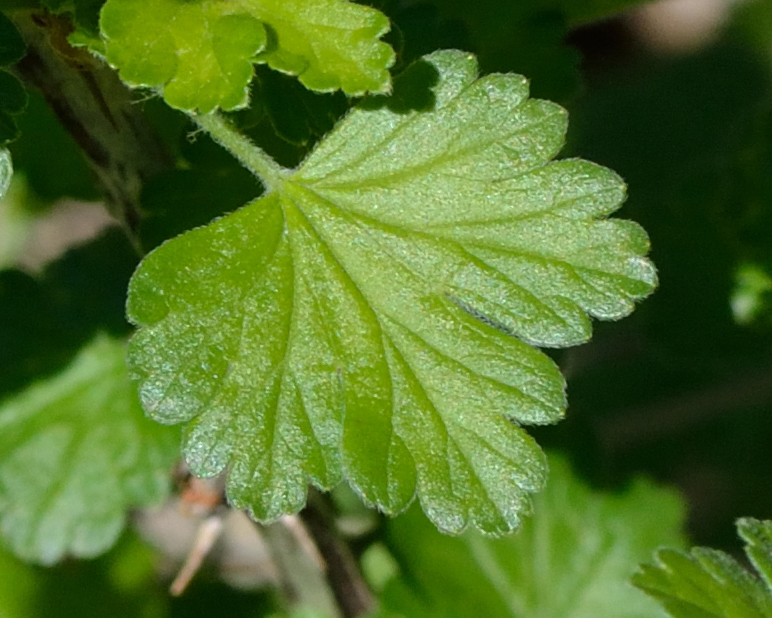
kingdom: Plantae
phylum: Tracheophyta
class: Magnoliopsida
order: Saxifragales
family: Grossulariaceae
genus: Ribes
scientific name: Ribes uva-crispa
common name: Gooseberry
